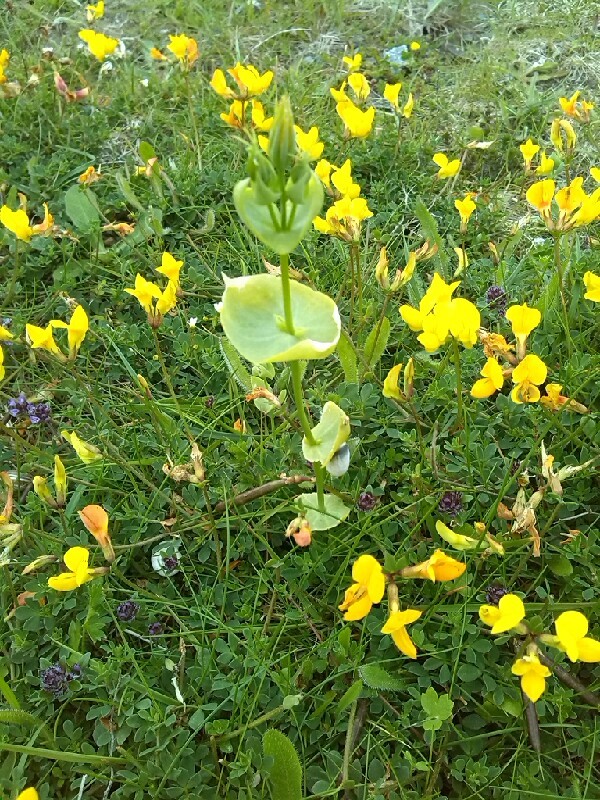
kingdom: Plantae
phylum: Tracheophyta
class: Magnoliopsida
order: Gentianales
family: Gentianaceae
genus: Blackstonia
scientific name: Blackstonia perfoliata
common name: Yellow-wort
